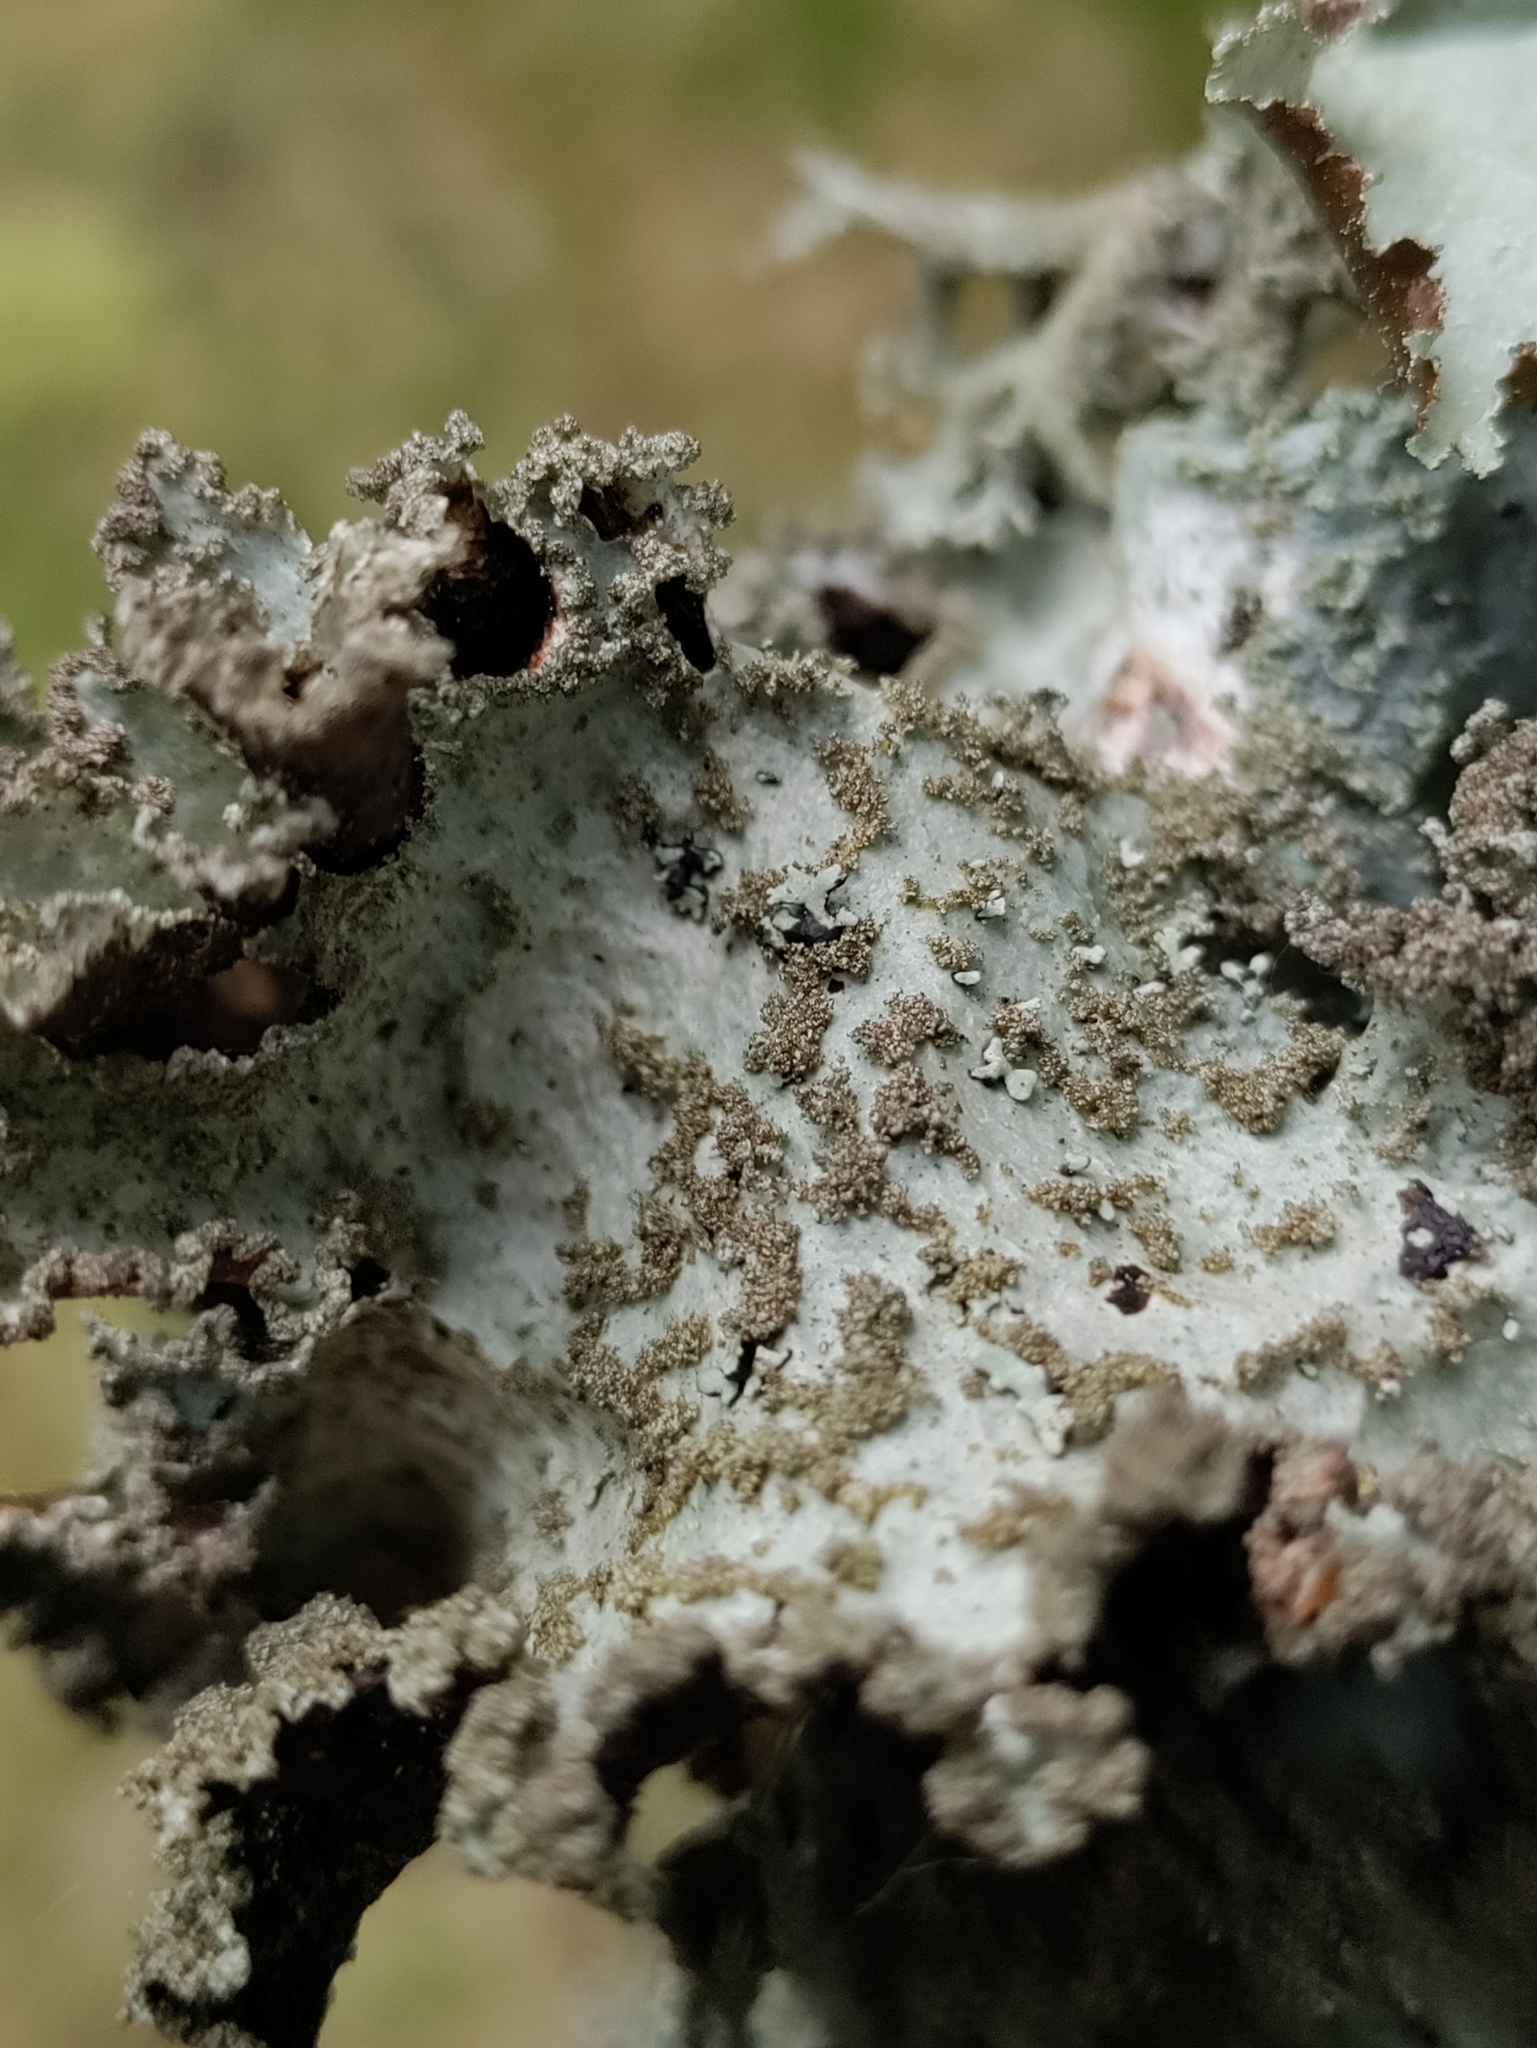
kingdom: Fungi
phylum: Ascomycota
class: Lecanoromycetes
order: Lecanorales
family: Parmeliaceae
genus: Platismatia
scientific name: Platismatia glauca
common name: Varied rag lichen
